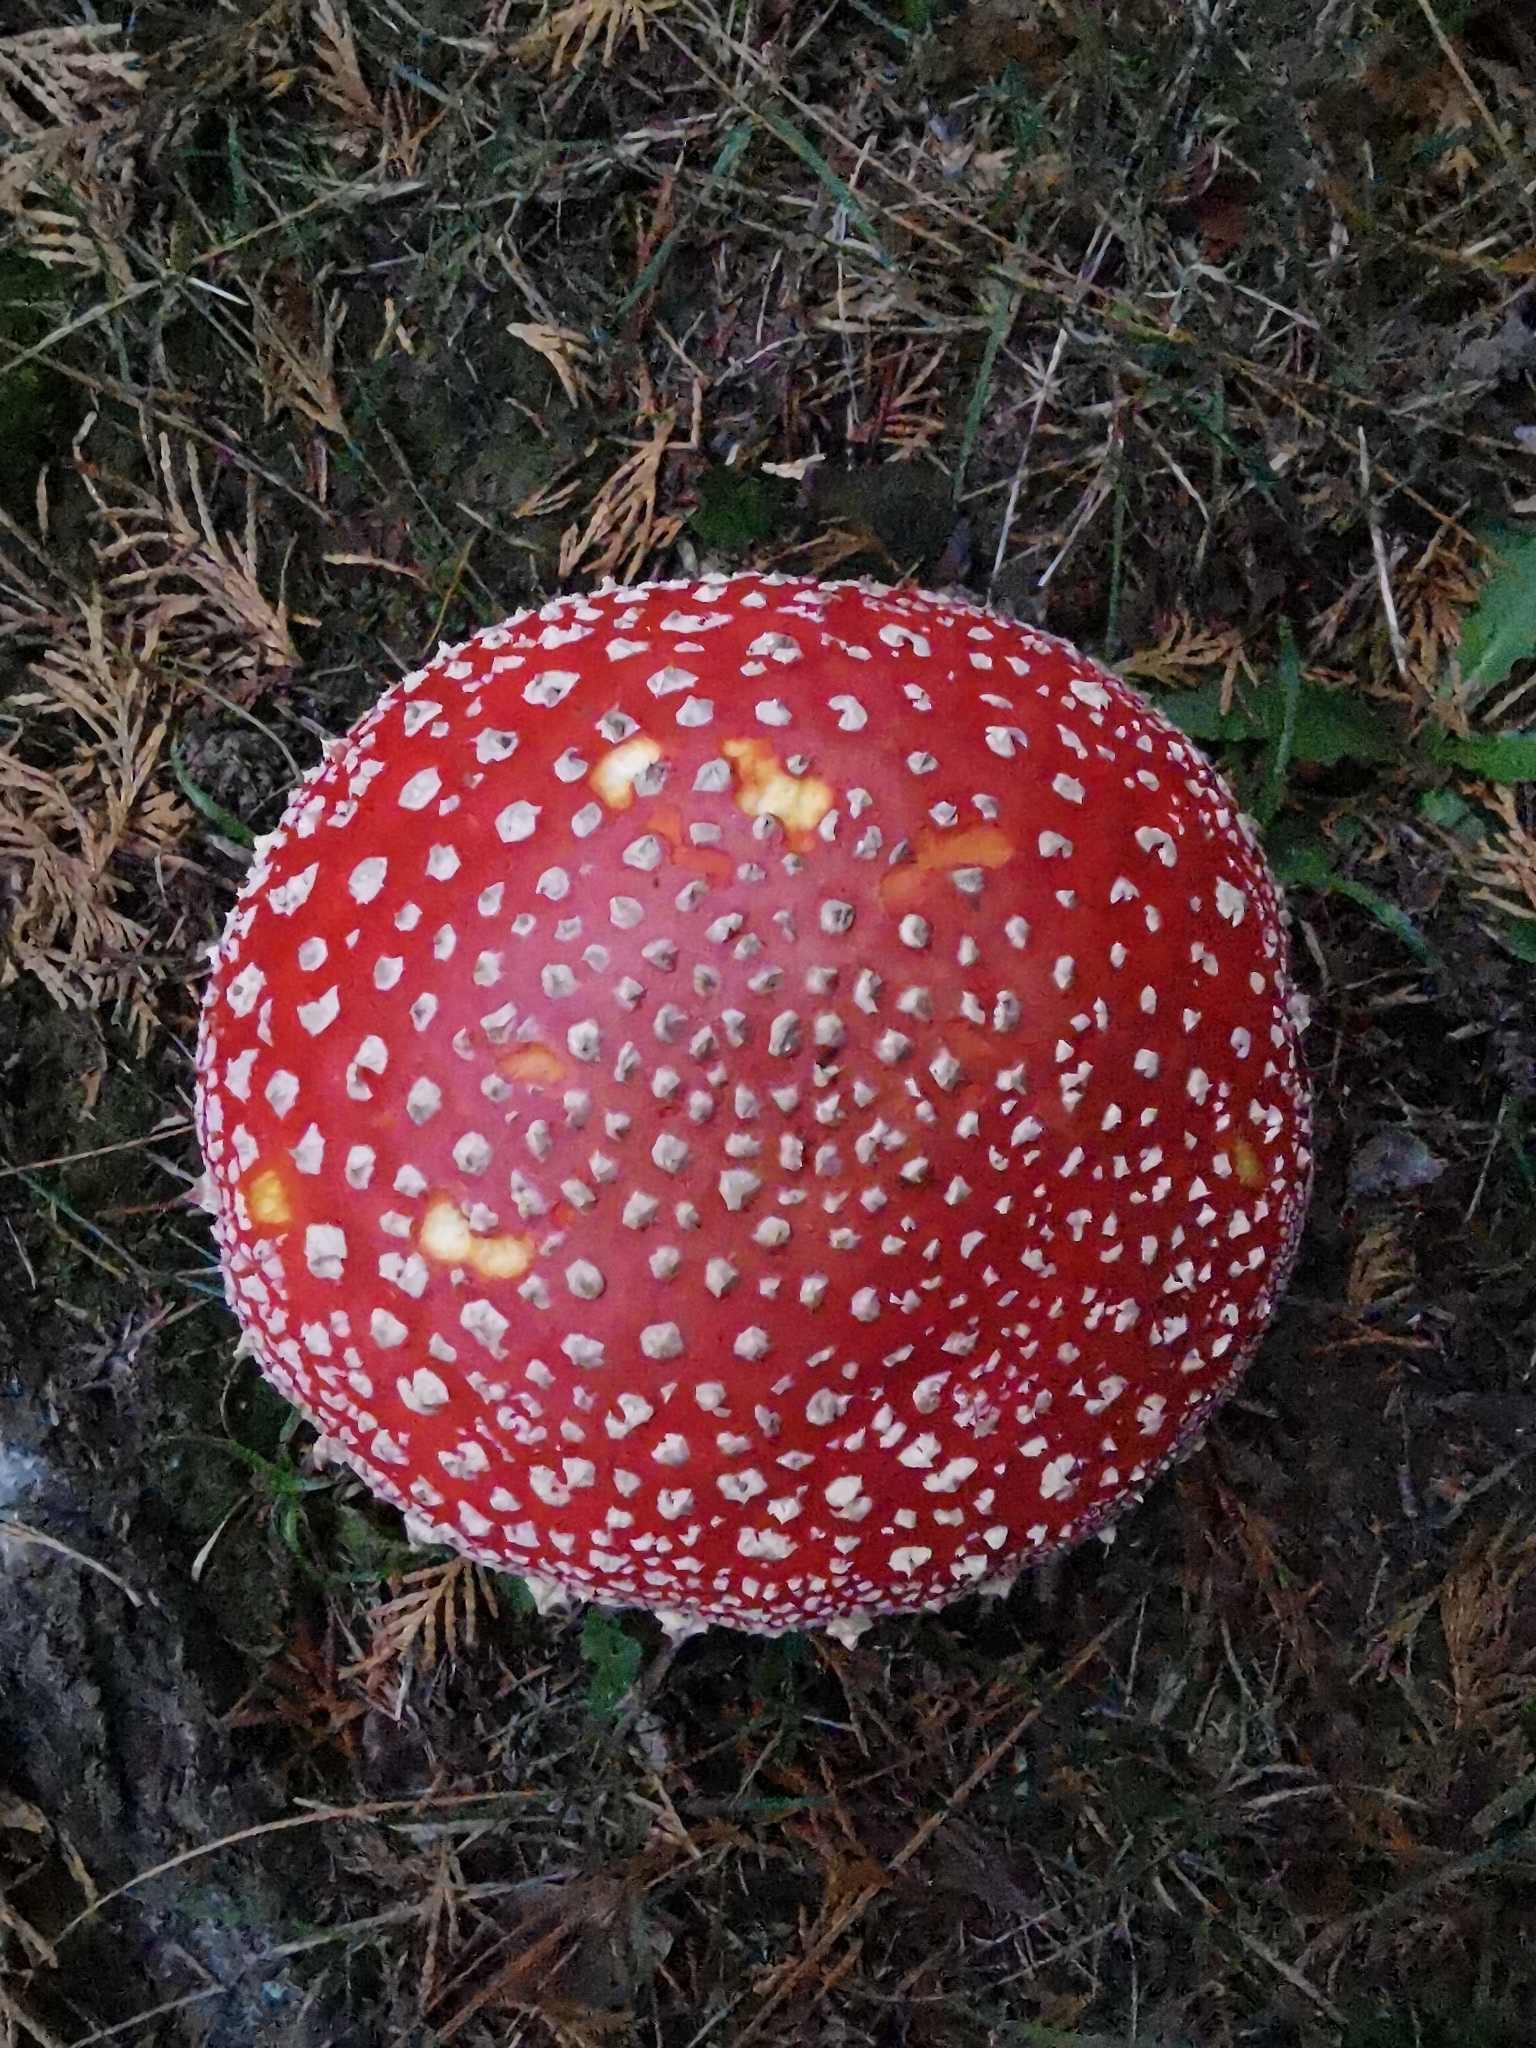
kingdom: Fungi
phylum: Basidiomycota
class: Agaricomycetes
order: Agaricales
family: Amanitaceae
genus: Amanita
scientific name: Amanita muscaria
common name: Fly agaric
